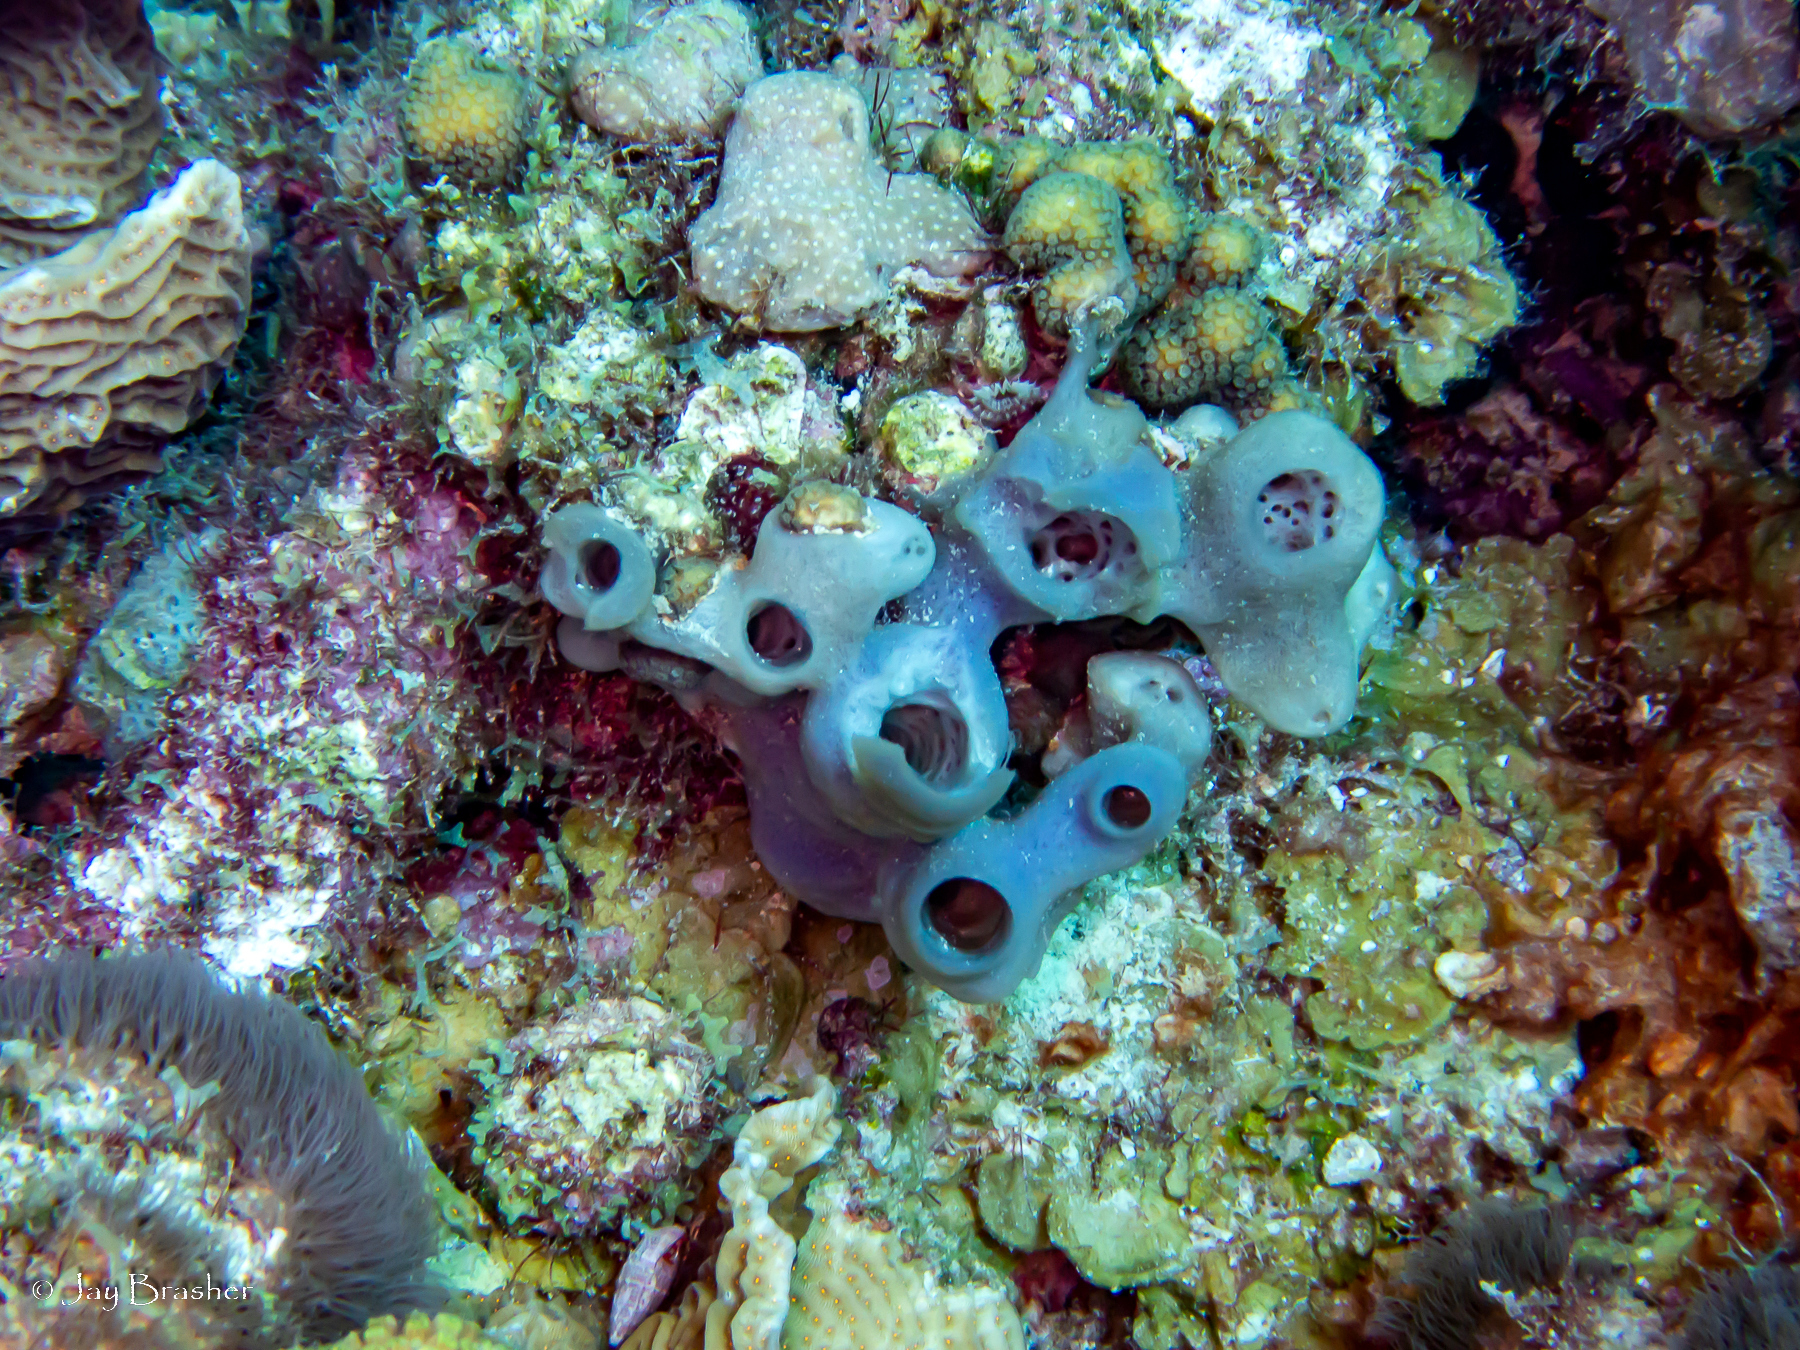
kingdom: Animalia
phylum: Cnidaria
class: Anthozoa
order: Scleralcyonacea
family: Erythropodiidae
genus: Erythropodium
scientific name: Erythropodium caribaeorum
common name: Encrusting gorgonian
